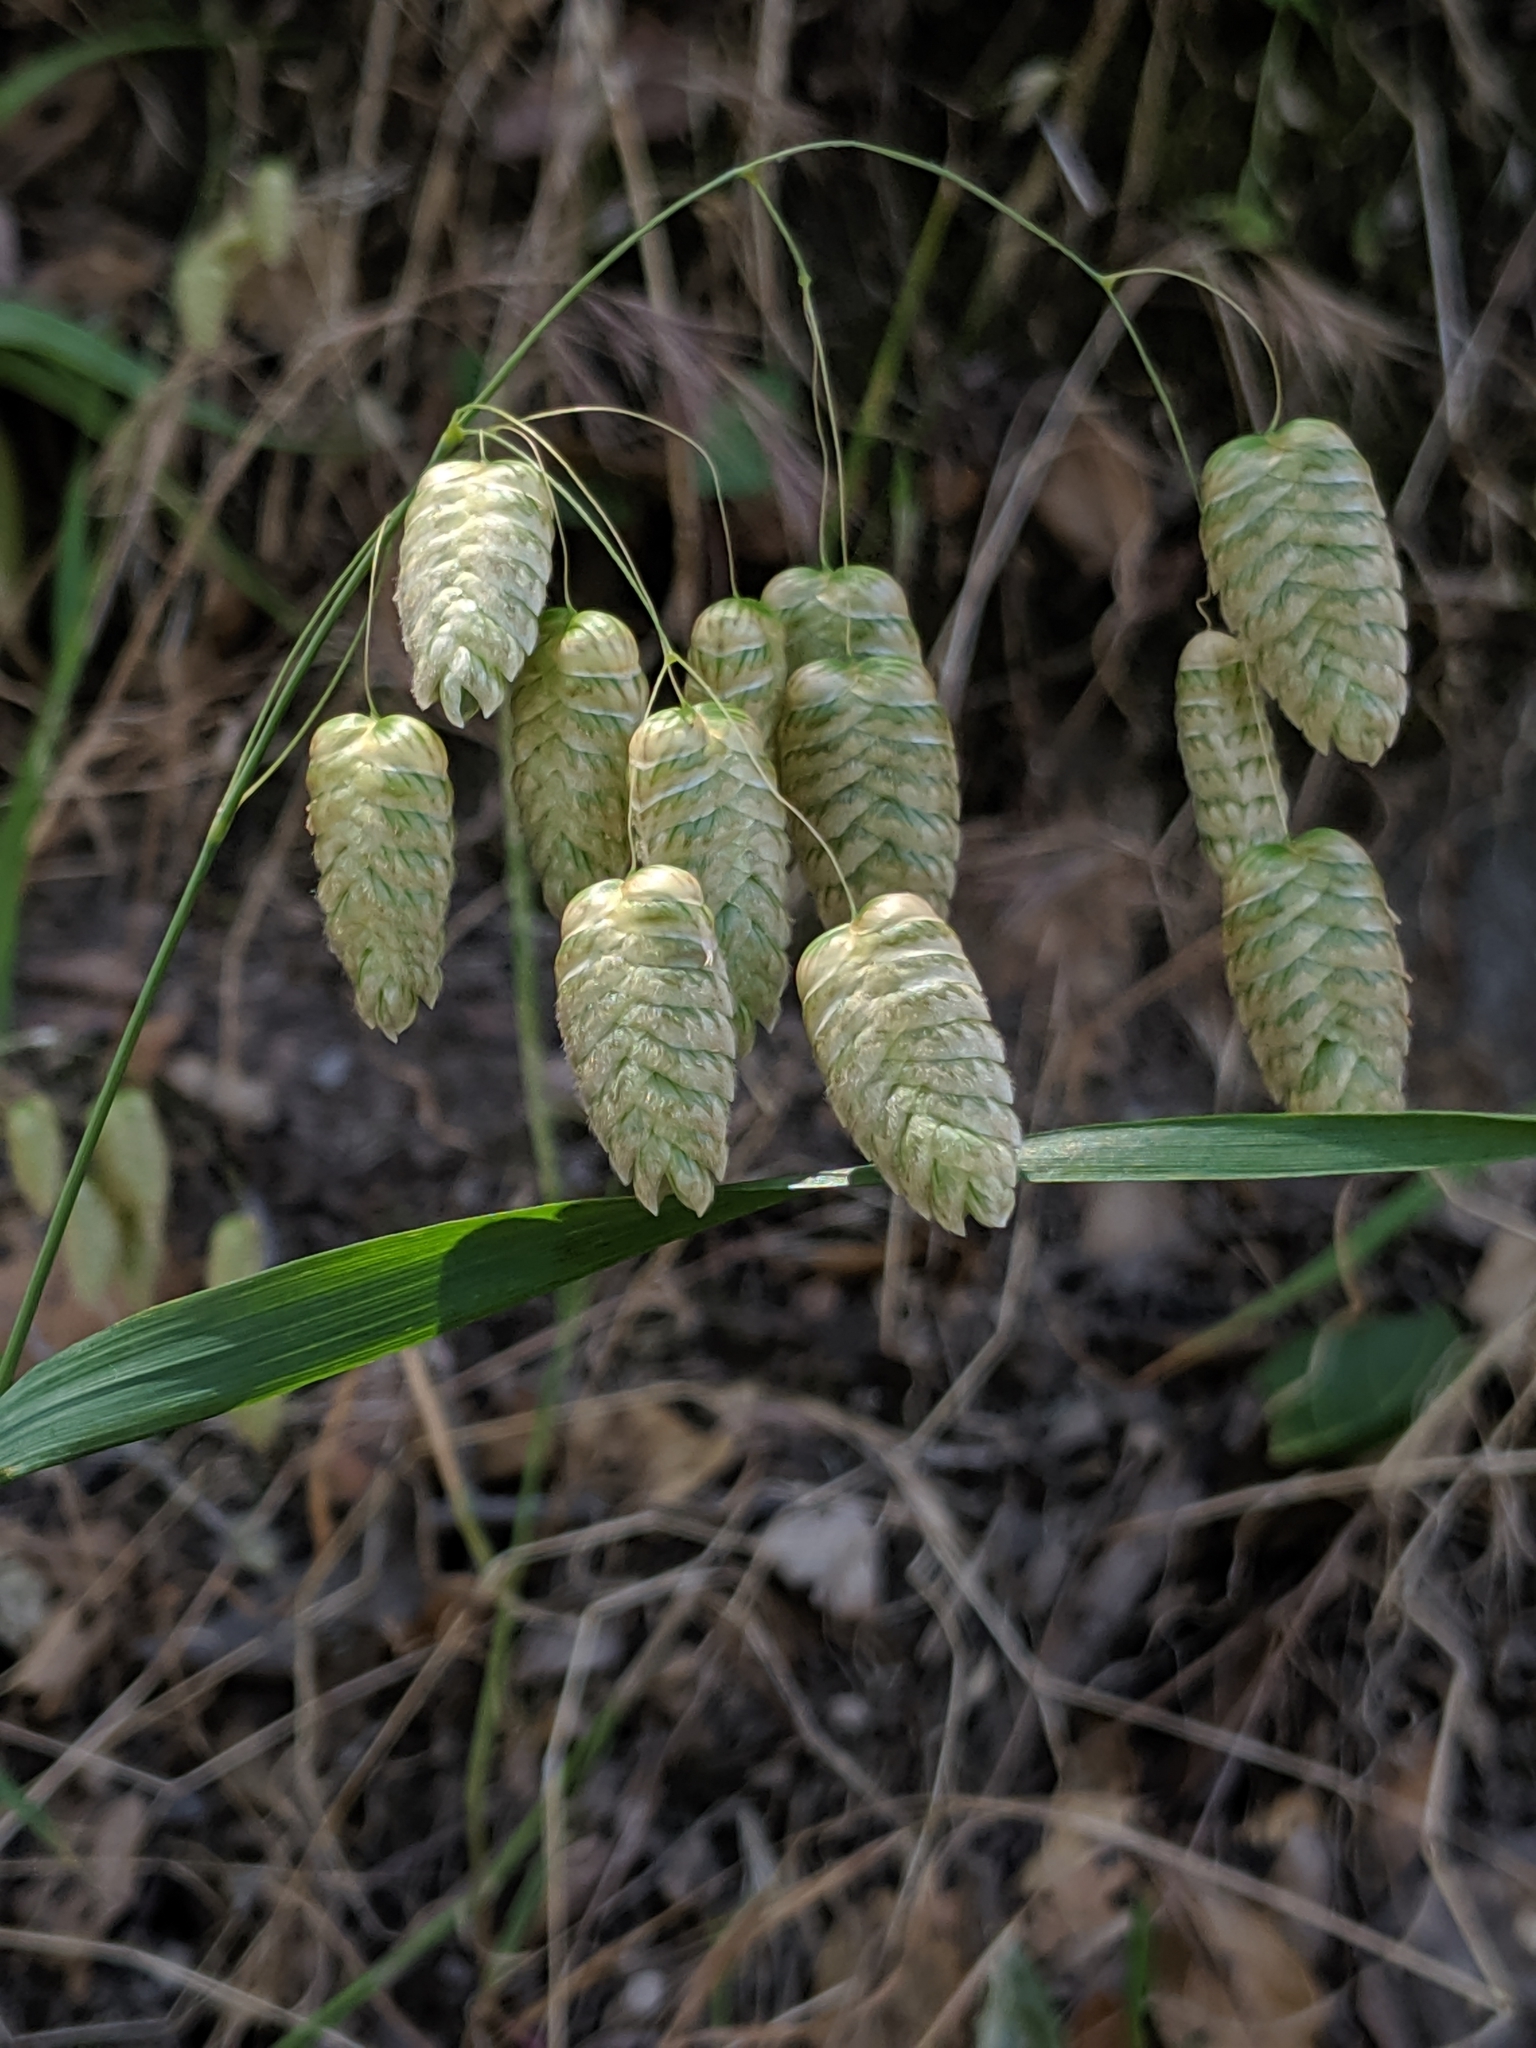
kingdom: Plantae
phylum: Tracheophyta
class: Liliopsida
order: Poales
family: Poaceae
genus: Briza
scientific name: Briza maxima
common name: Big quakinggrass
